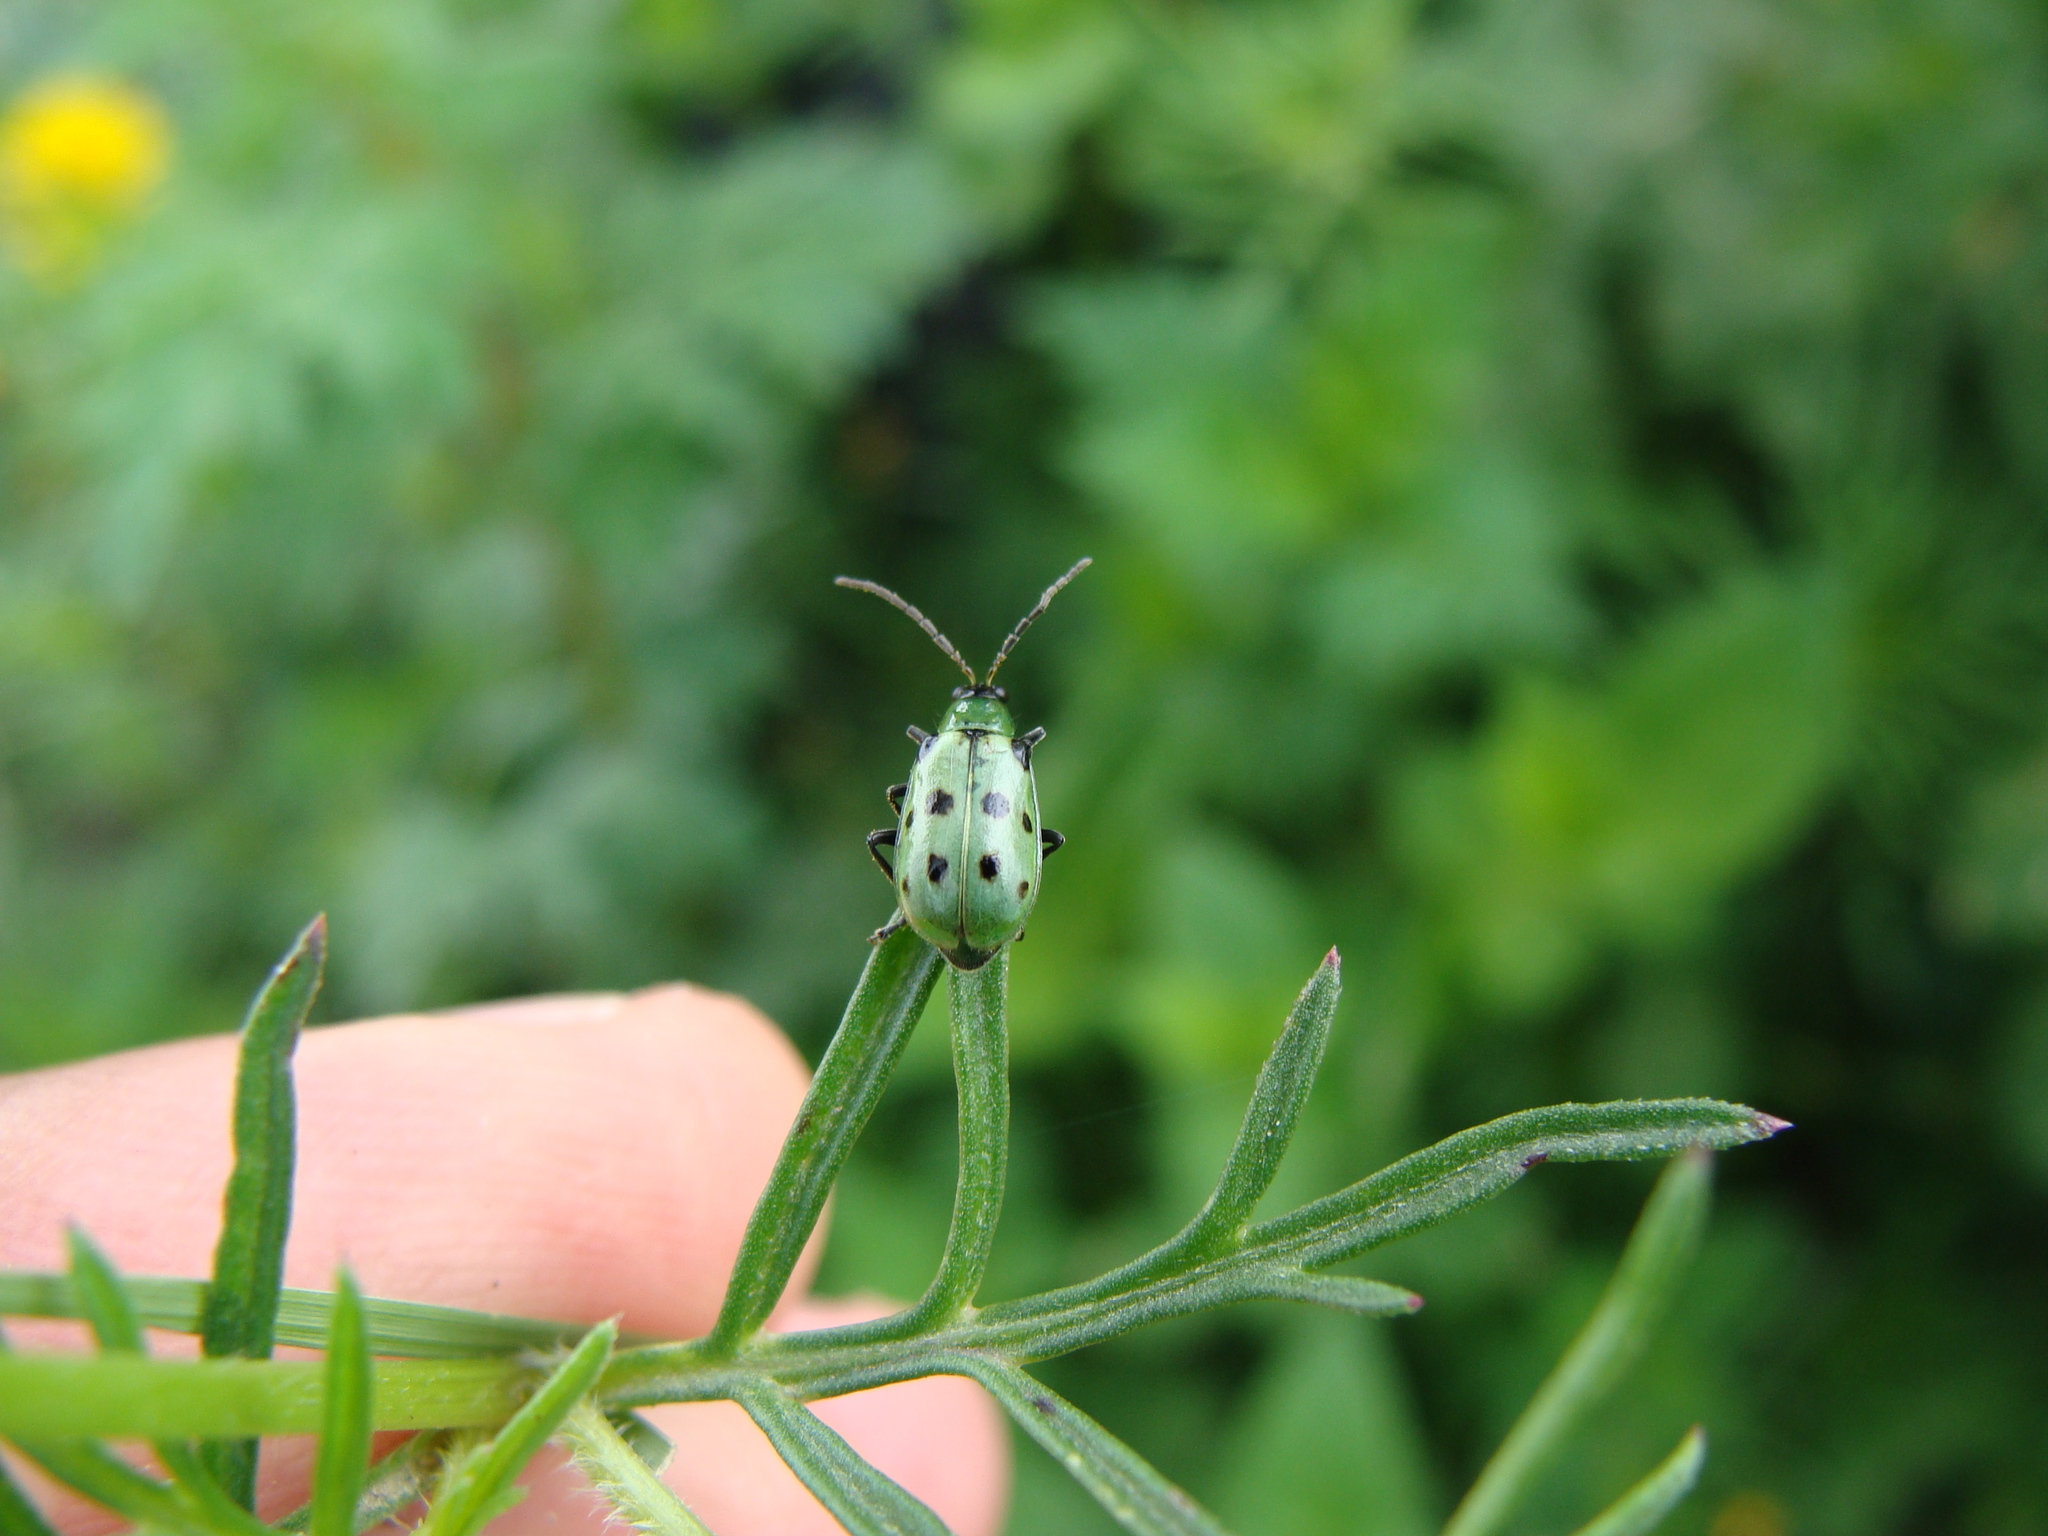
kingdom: Animalia
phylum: Arthropoda
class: Insecta
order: Coleoptera
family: Chrysomelidae
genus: Diabrotica
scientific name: Diabrotica undecimpunctata
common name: Spotted cucumber beetle
